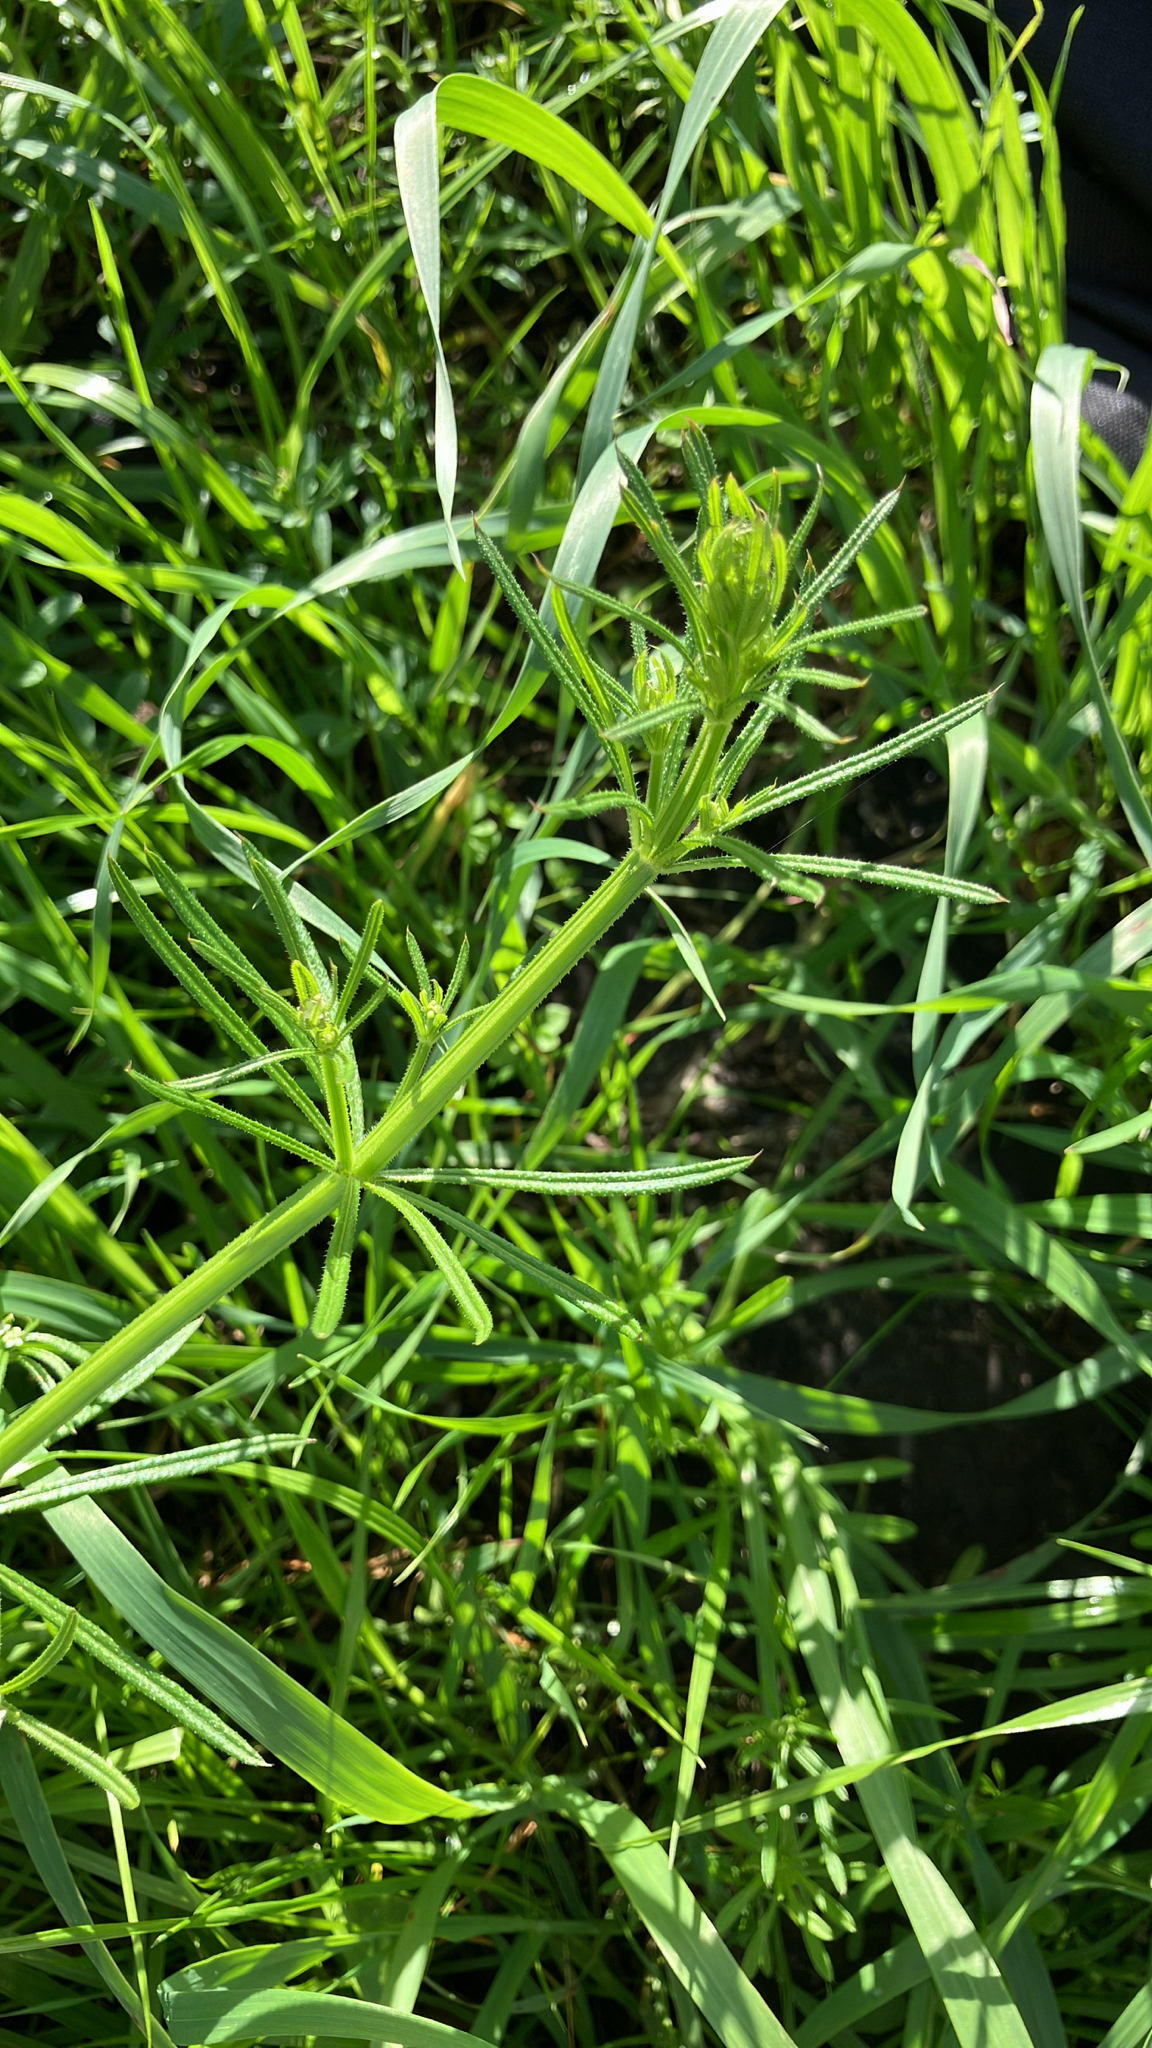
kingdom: Plantae
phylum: Tracheophyta
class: Magnoliopsida
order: Gentianales
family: Rubiaceae
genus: Galium
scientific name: Galium aparine
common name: Cleavers
